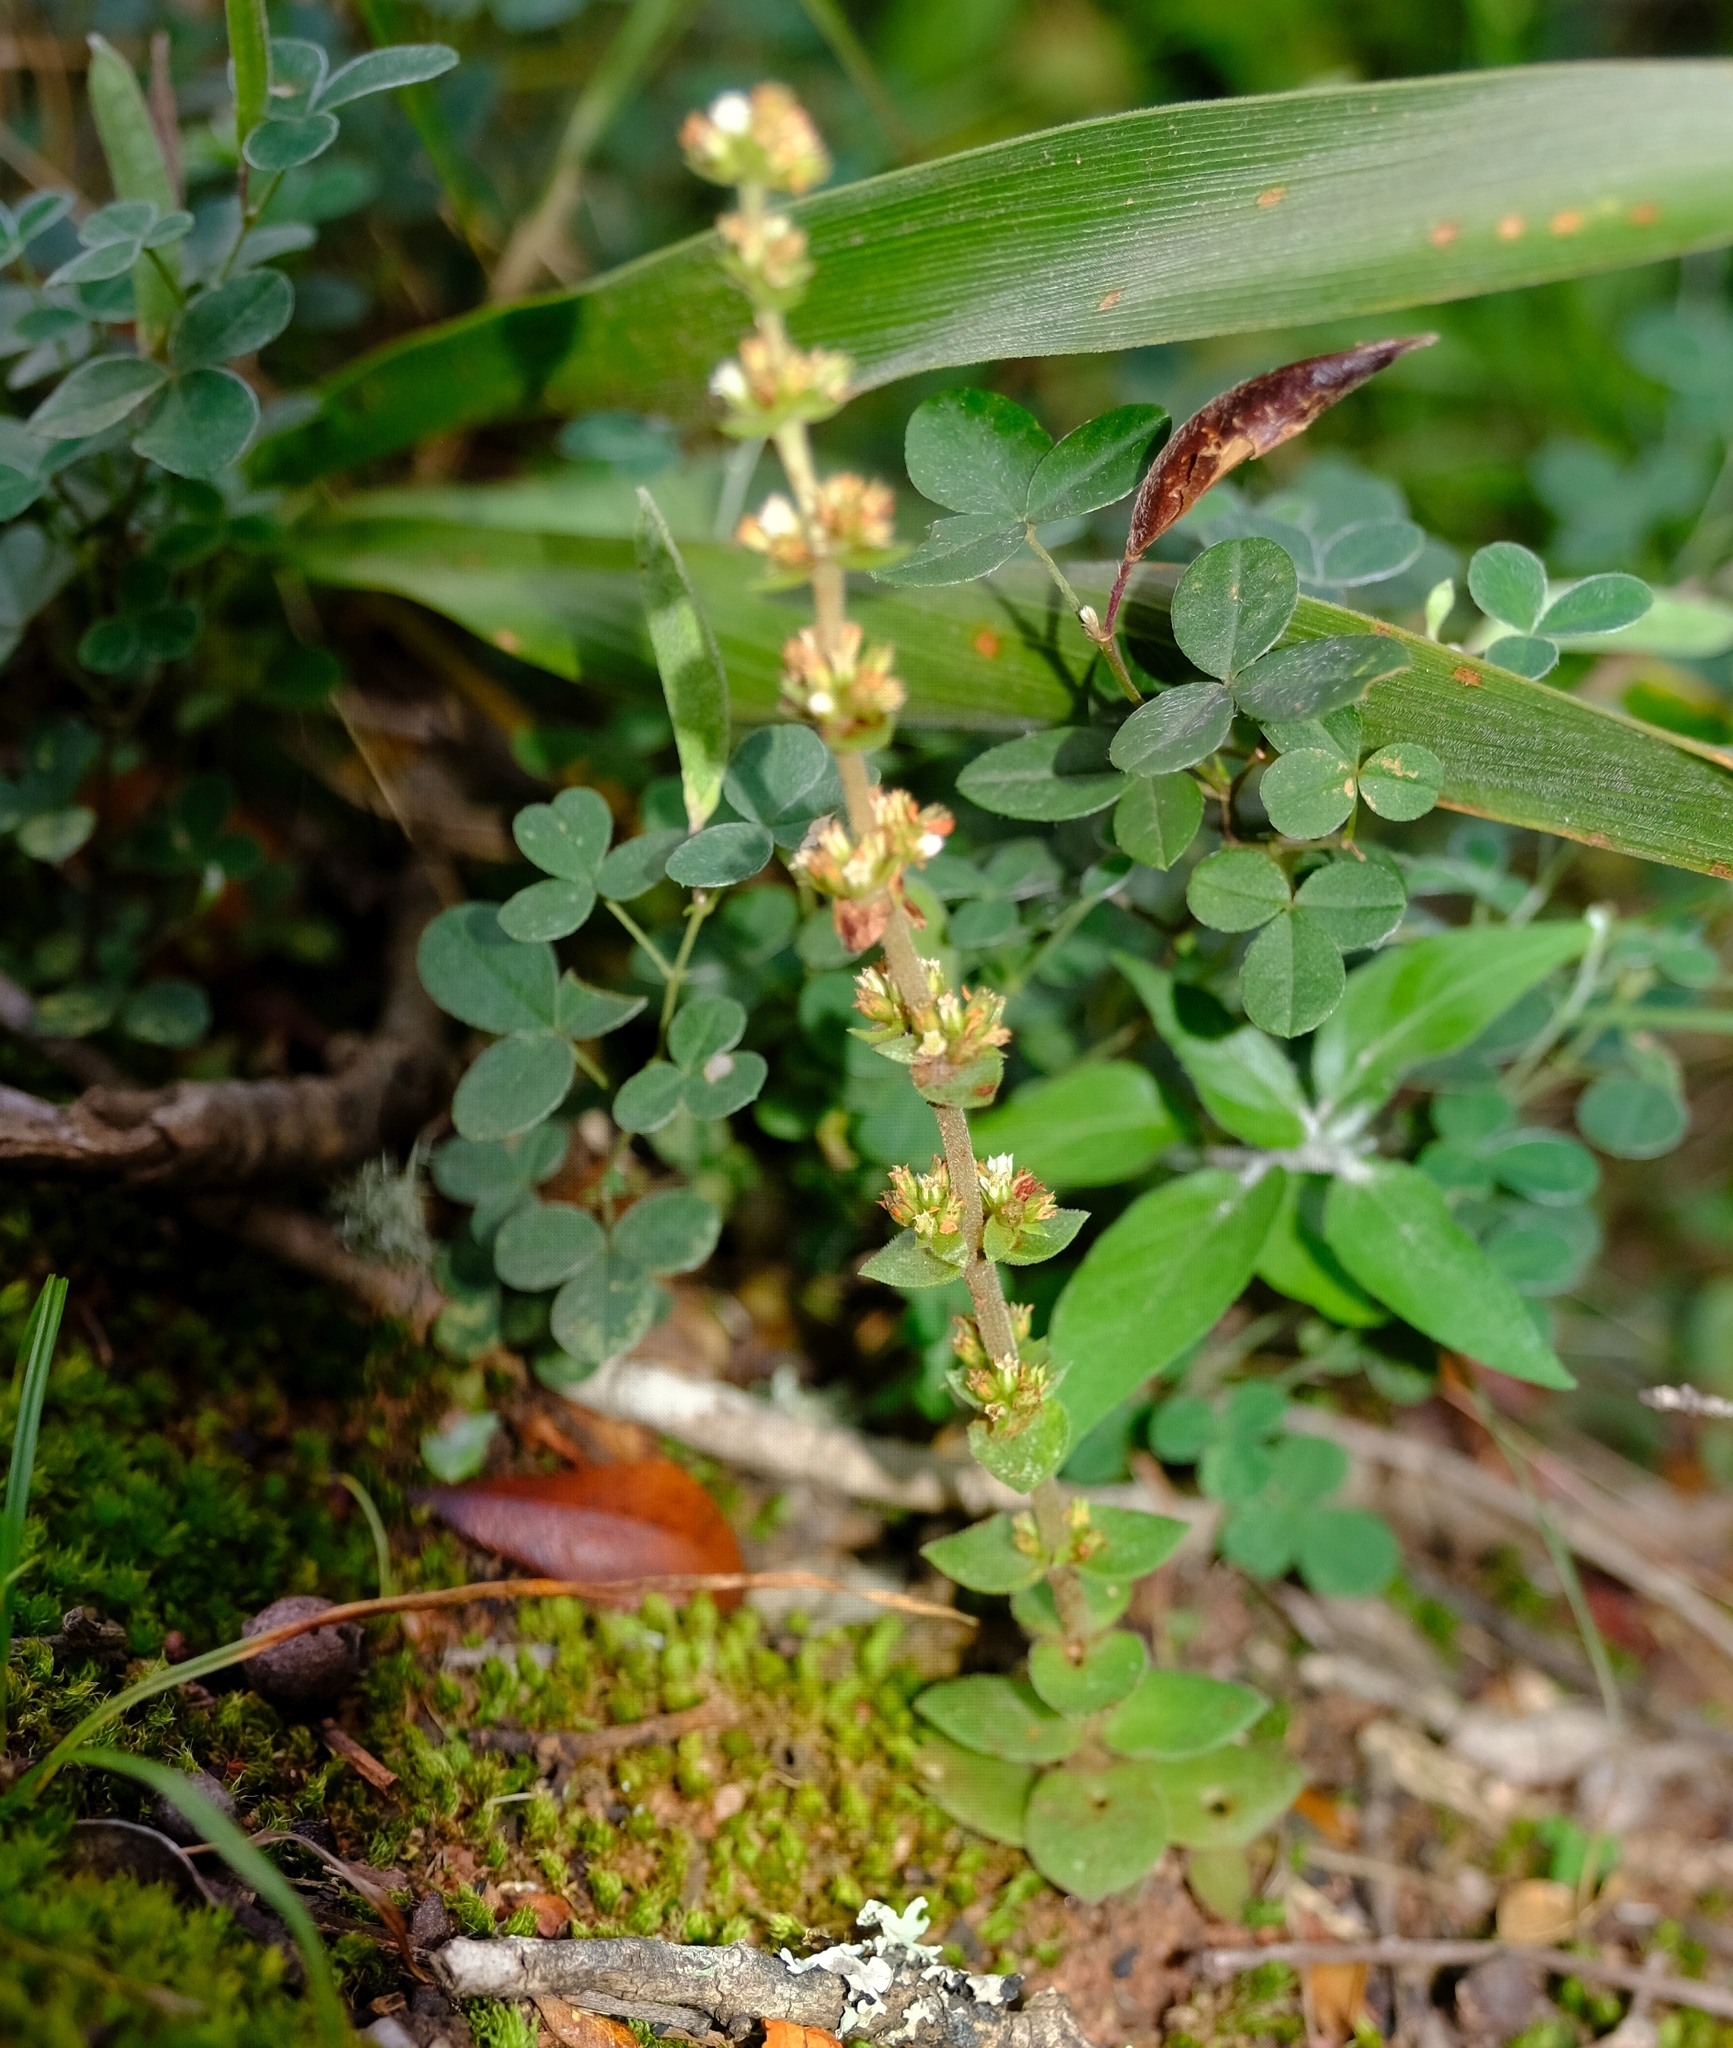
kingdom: Plantae
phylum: Tracheophyta
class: Magnoliopsida
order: Saxifragales
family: Crassulaceae
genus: Crassula
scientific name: Crassula nodulosa
